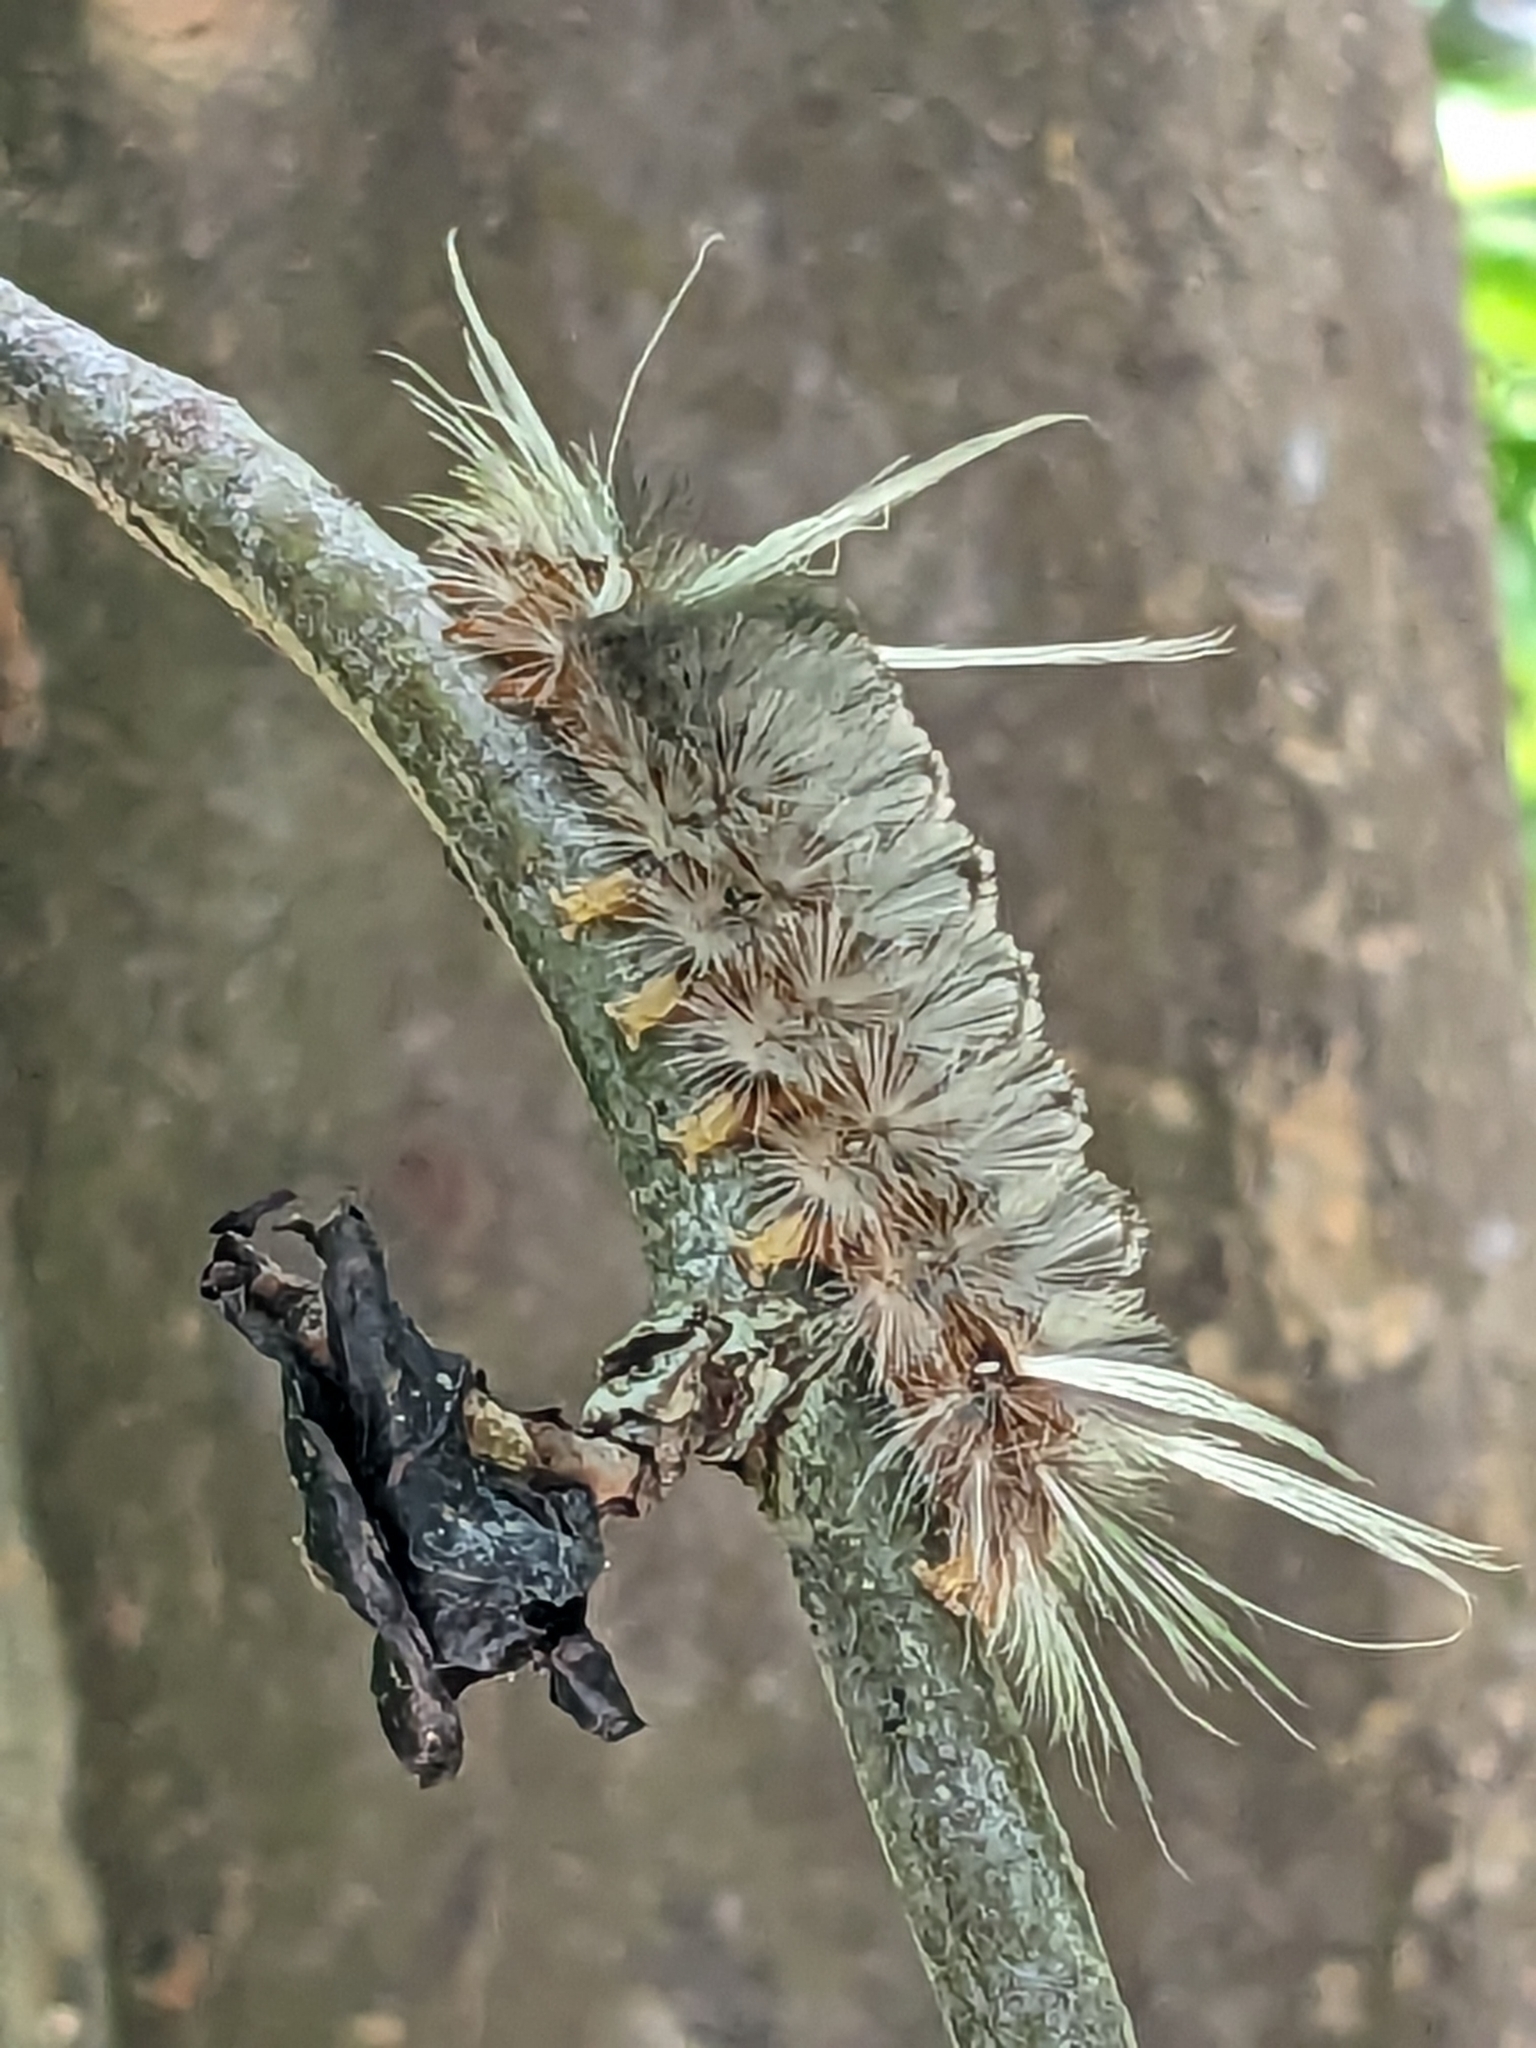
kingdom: Animalia
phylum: Arthropoda
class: Insecta
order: Lepidoptera
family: Erebidae
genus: Halysidota
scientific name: Halysidota cinctipes
